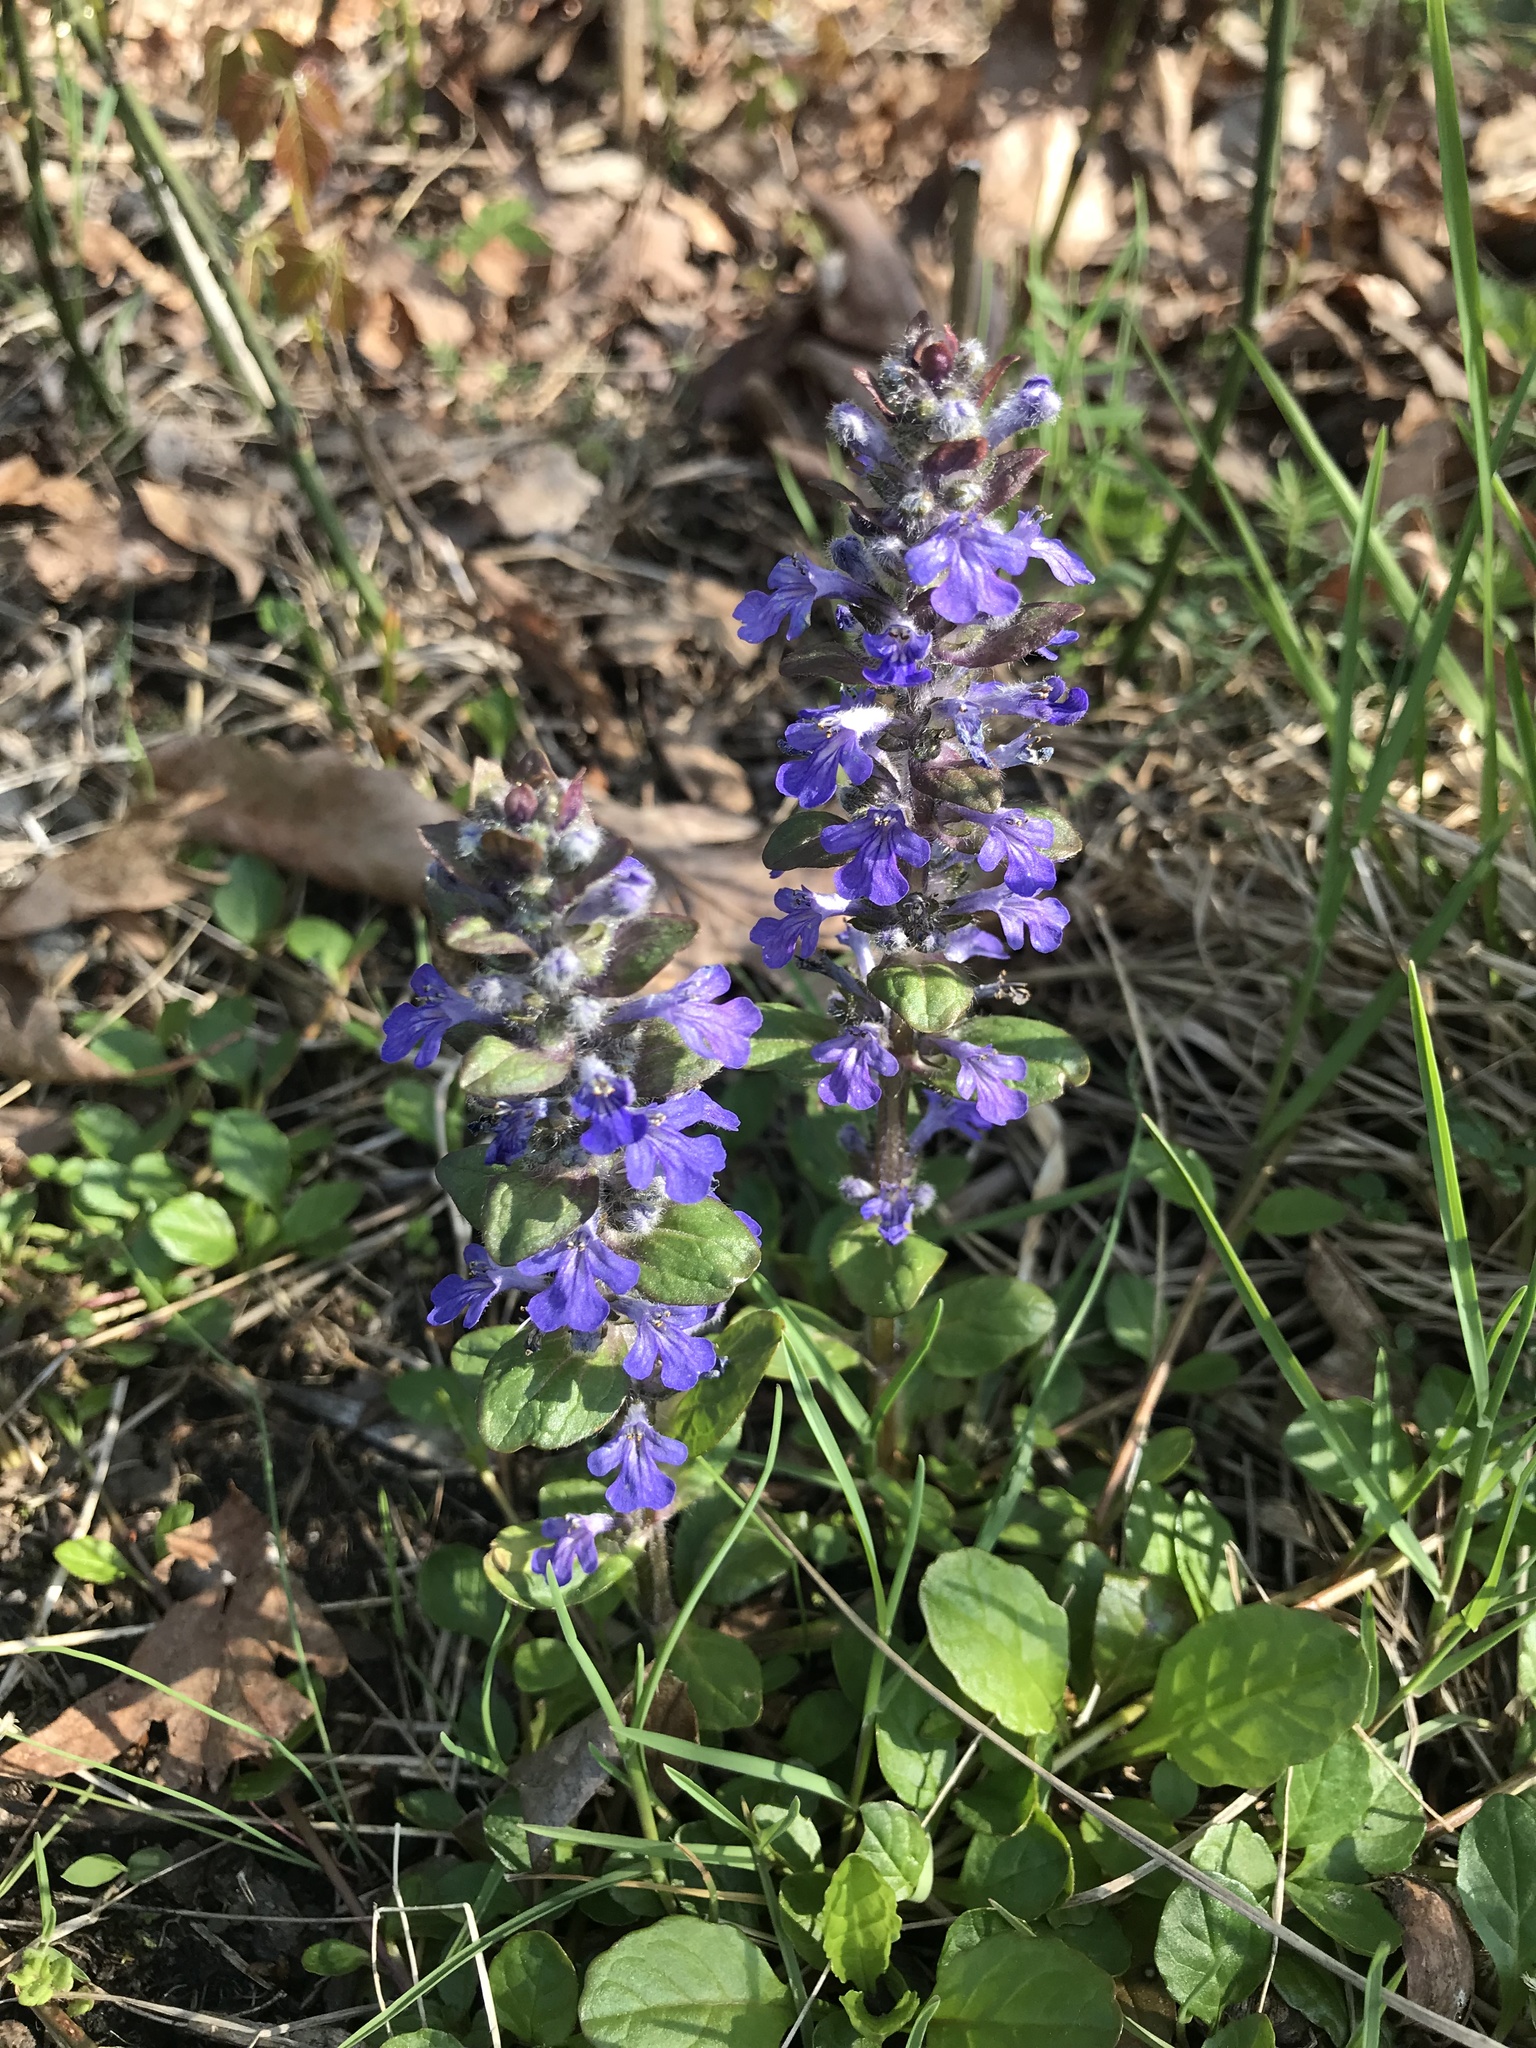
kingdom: Plantae
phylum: Tracheophyta
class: Magnoliopsida
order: Lamiales
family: Lamiaceae
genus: Ajuga
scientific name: Ajuga reptans
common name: Bugle
